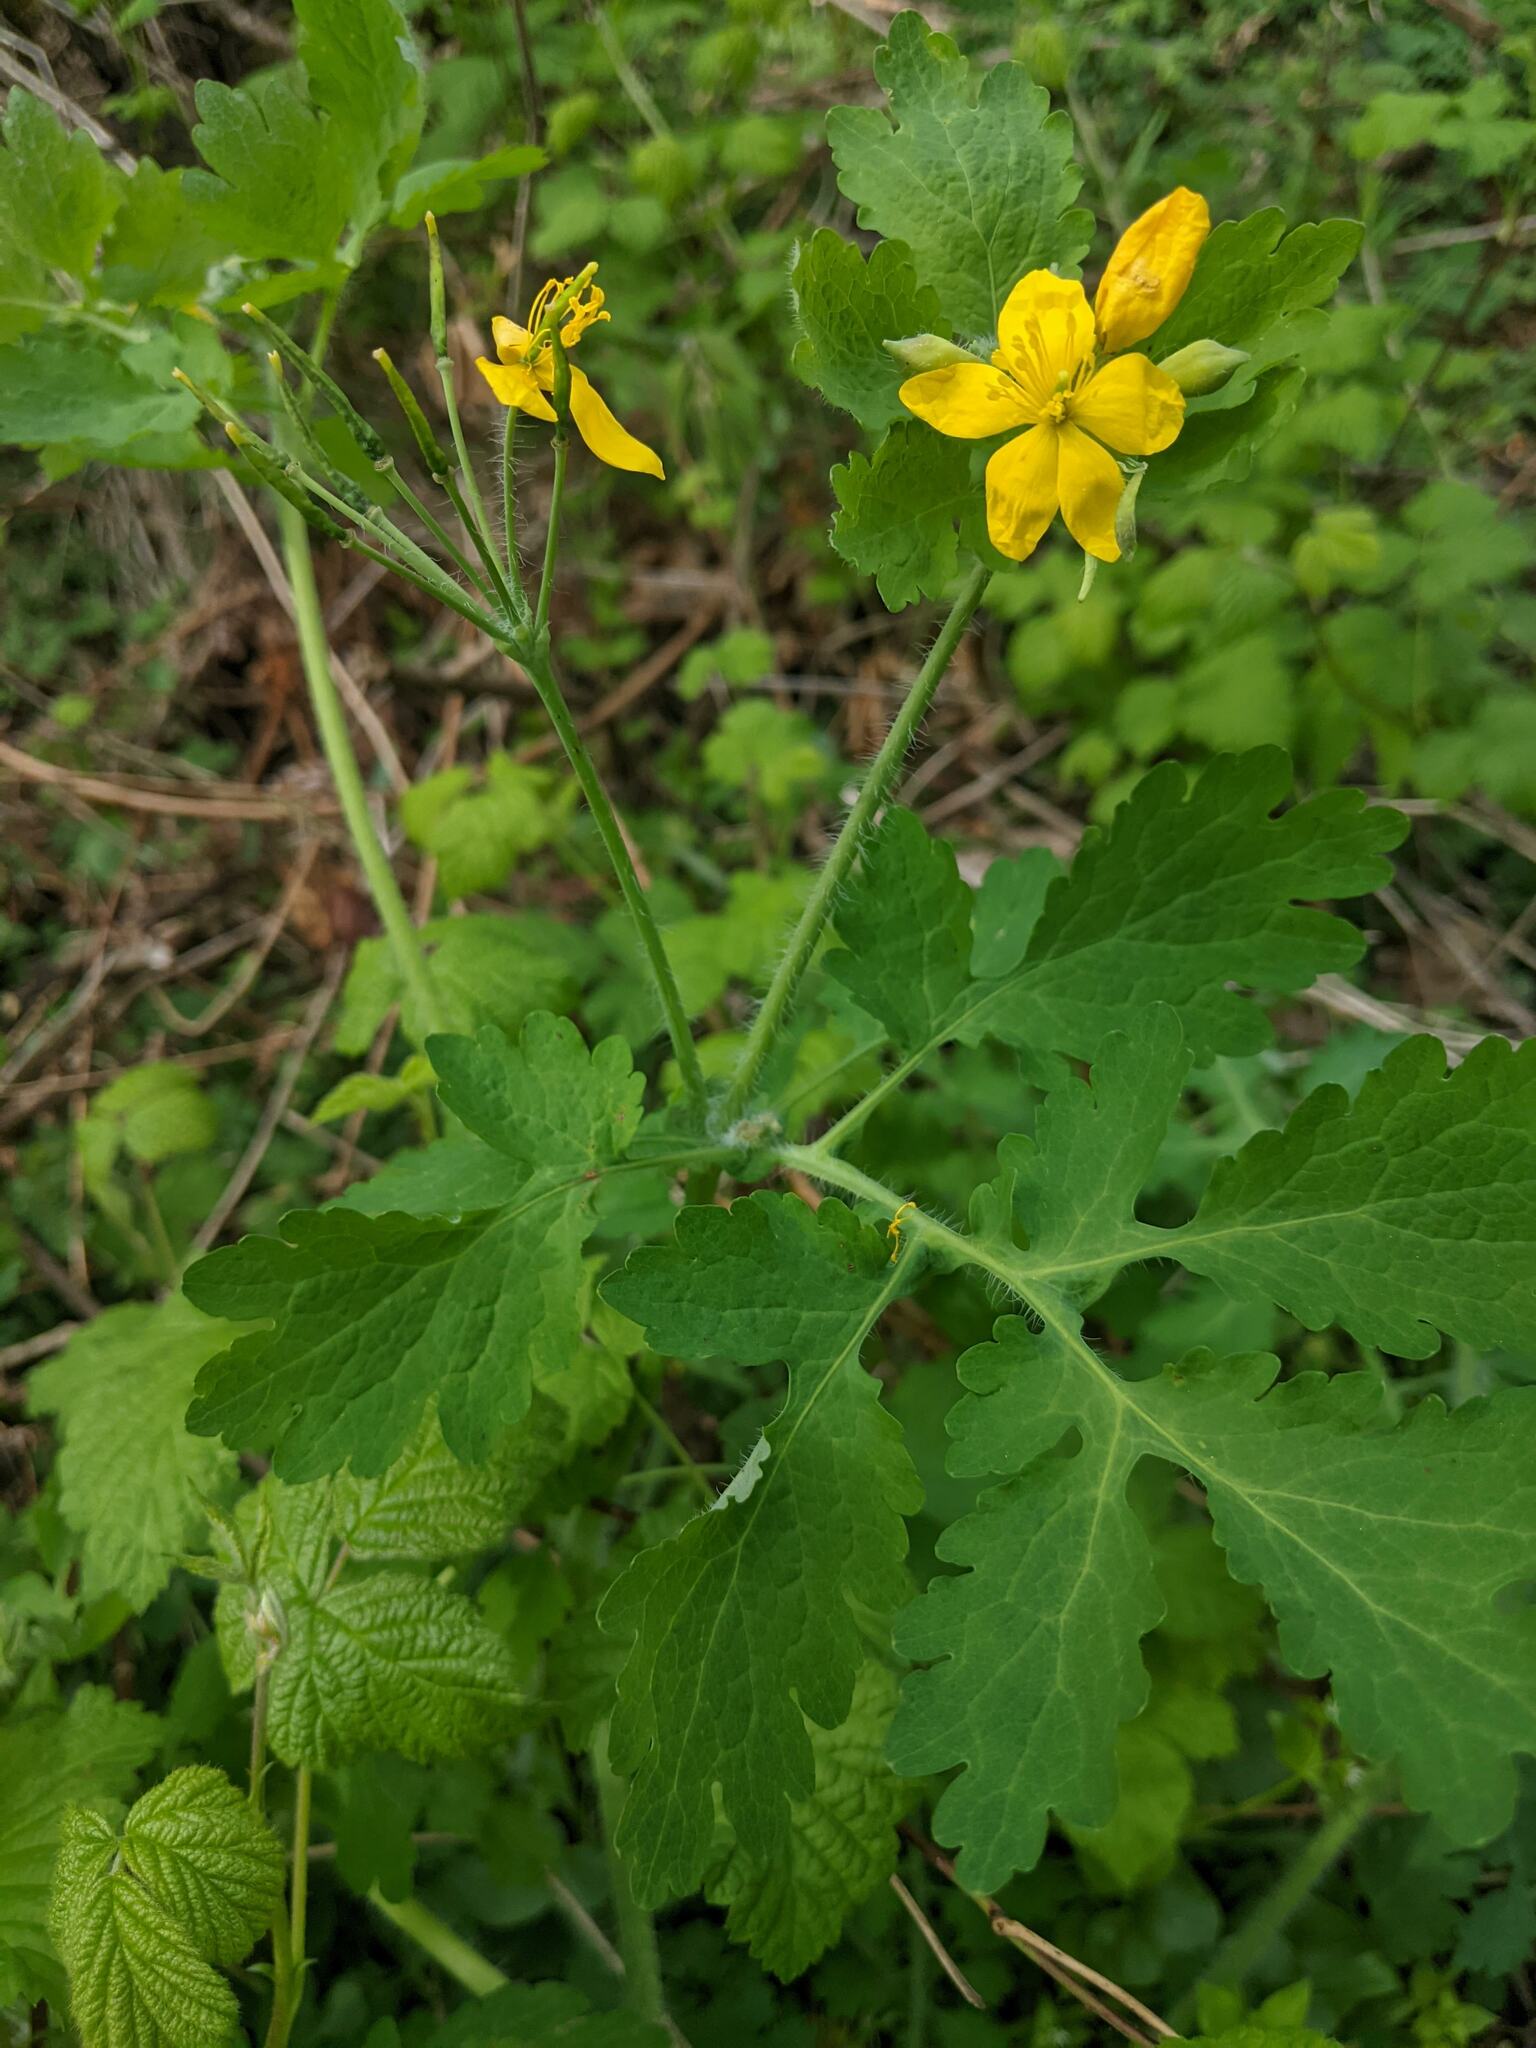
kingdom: Plantae
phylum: Tracheophyta
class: Magnoliopsida
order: Ranunculales
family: Papaveraceae
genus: Chelidonium
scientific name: Chelidonium majus
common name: Greater celandine
